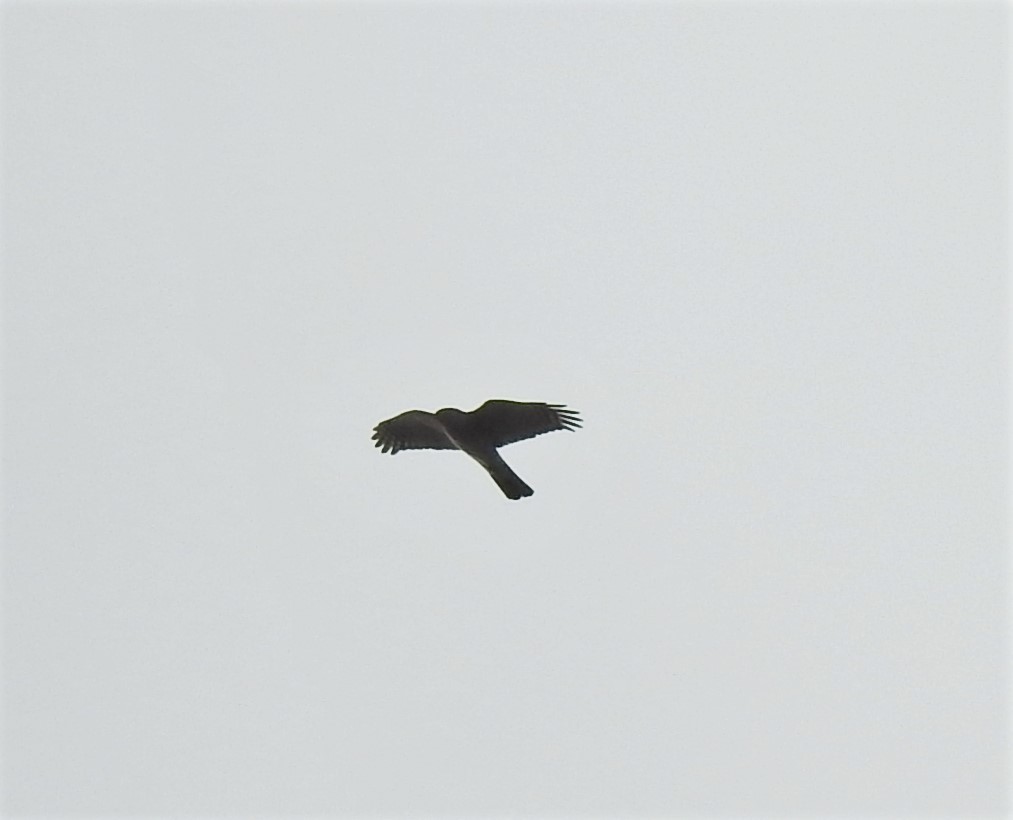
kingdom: Animalia
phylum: Chordata
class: Aves
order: Accipitriformes
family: Accipitridae
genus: Accipiter
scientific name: Accipiter nisus
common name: Eurasian sparrowhawk
